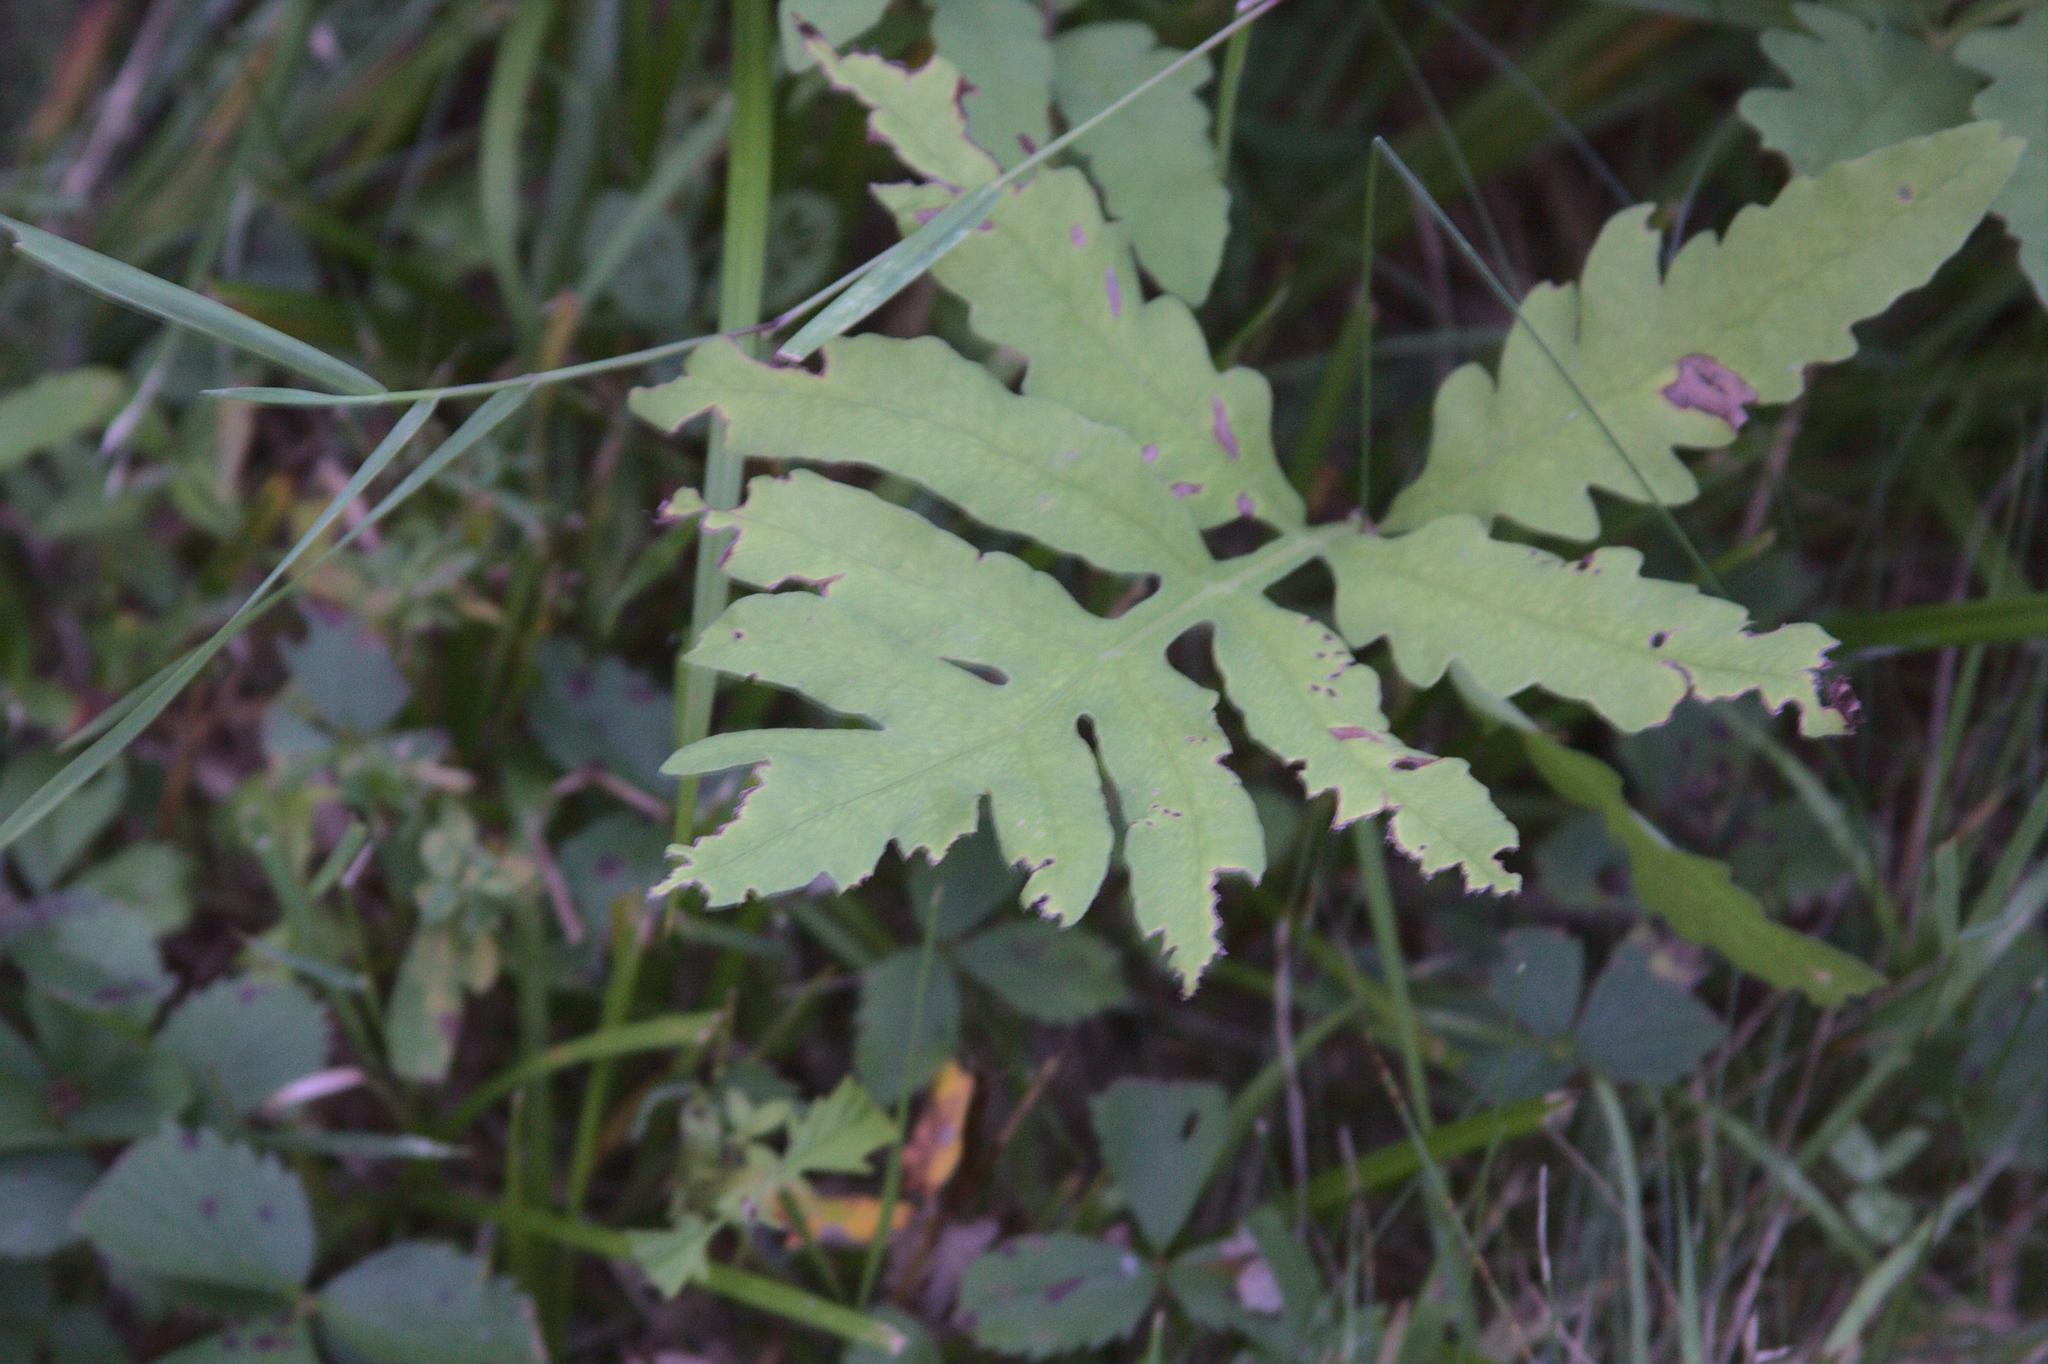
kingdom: Plantae
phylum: Tracheophyta
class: Polypodiopsida
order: Polypodiales
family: Onocleaceae
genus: Onoclea
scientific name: Onoclea sensibilis
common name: Sensitive fern
